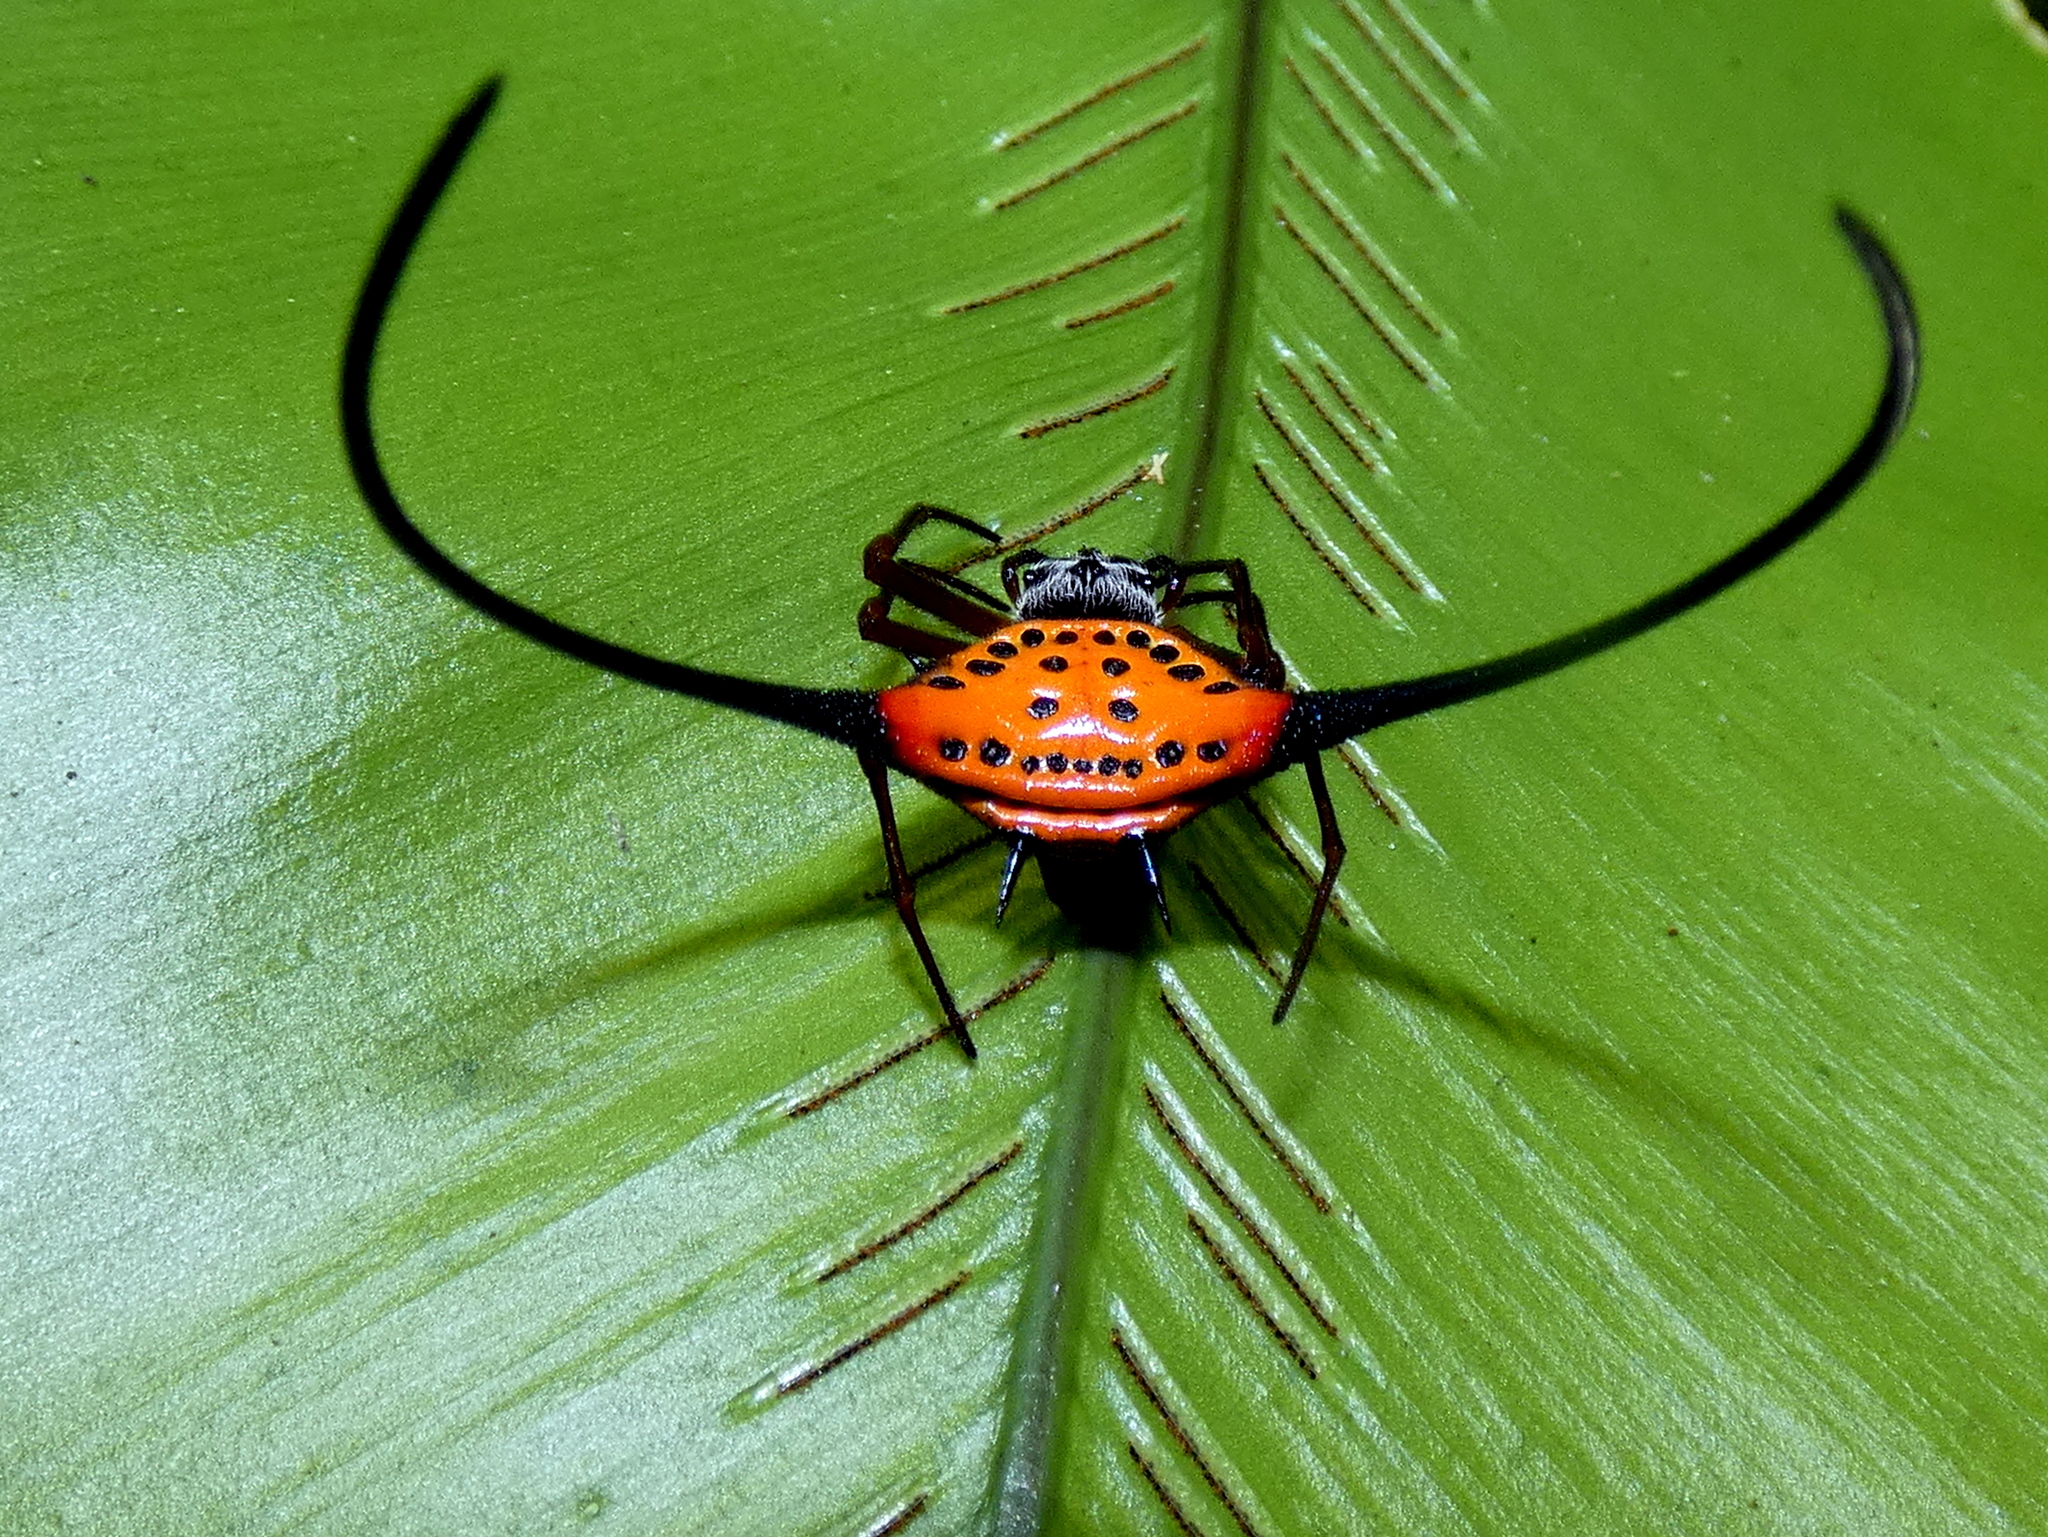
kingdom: Animalia
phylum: Arthropoda
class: Arachnida
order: Araneae
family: Araneidae
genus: Macracantha
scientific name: Macracantha arcuata
